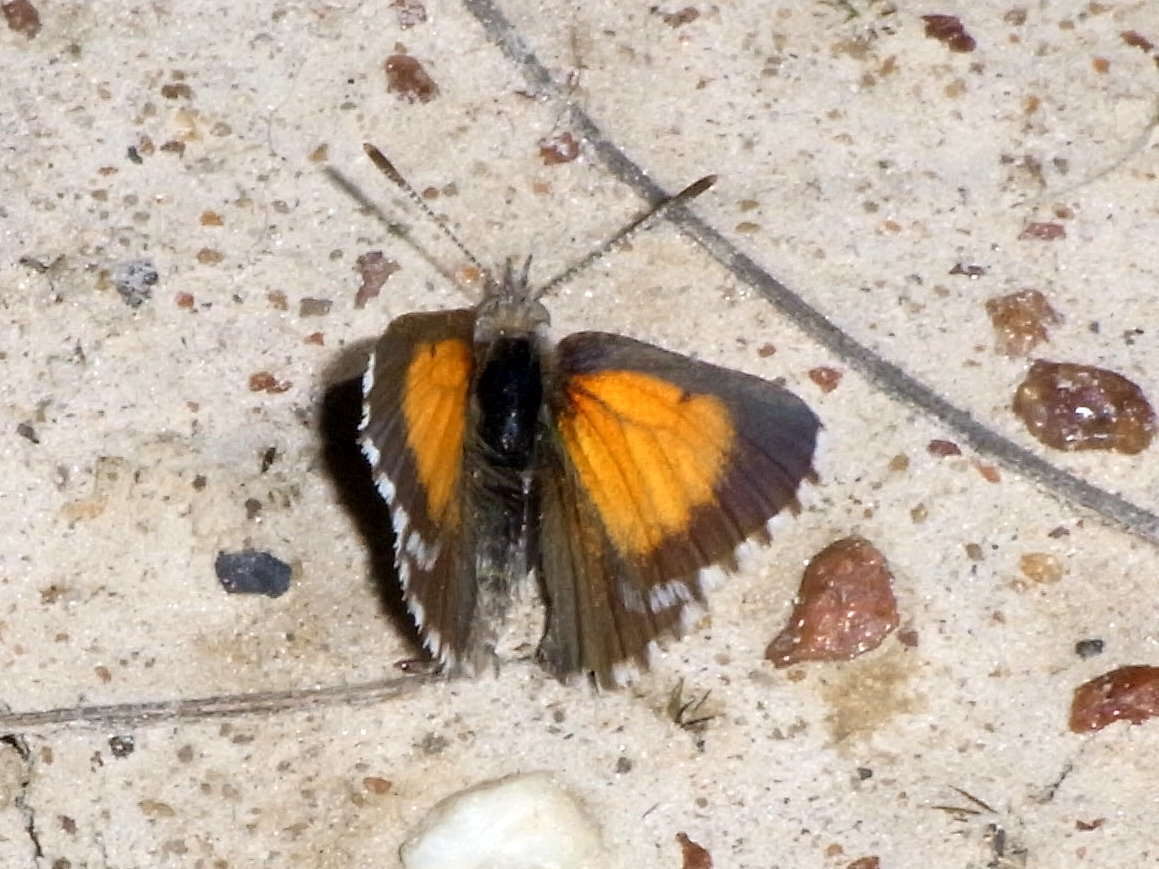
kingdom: Animalia
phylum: Arthropoda
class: Insecta
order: Lepidoptera
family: Lycaenidae
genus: Lucia
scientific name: Lucia limbaria
